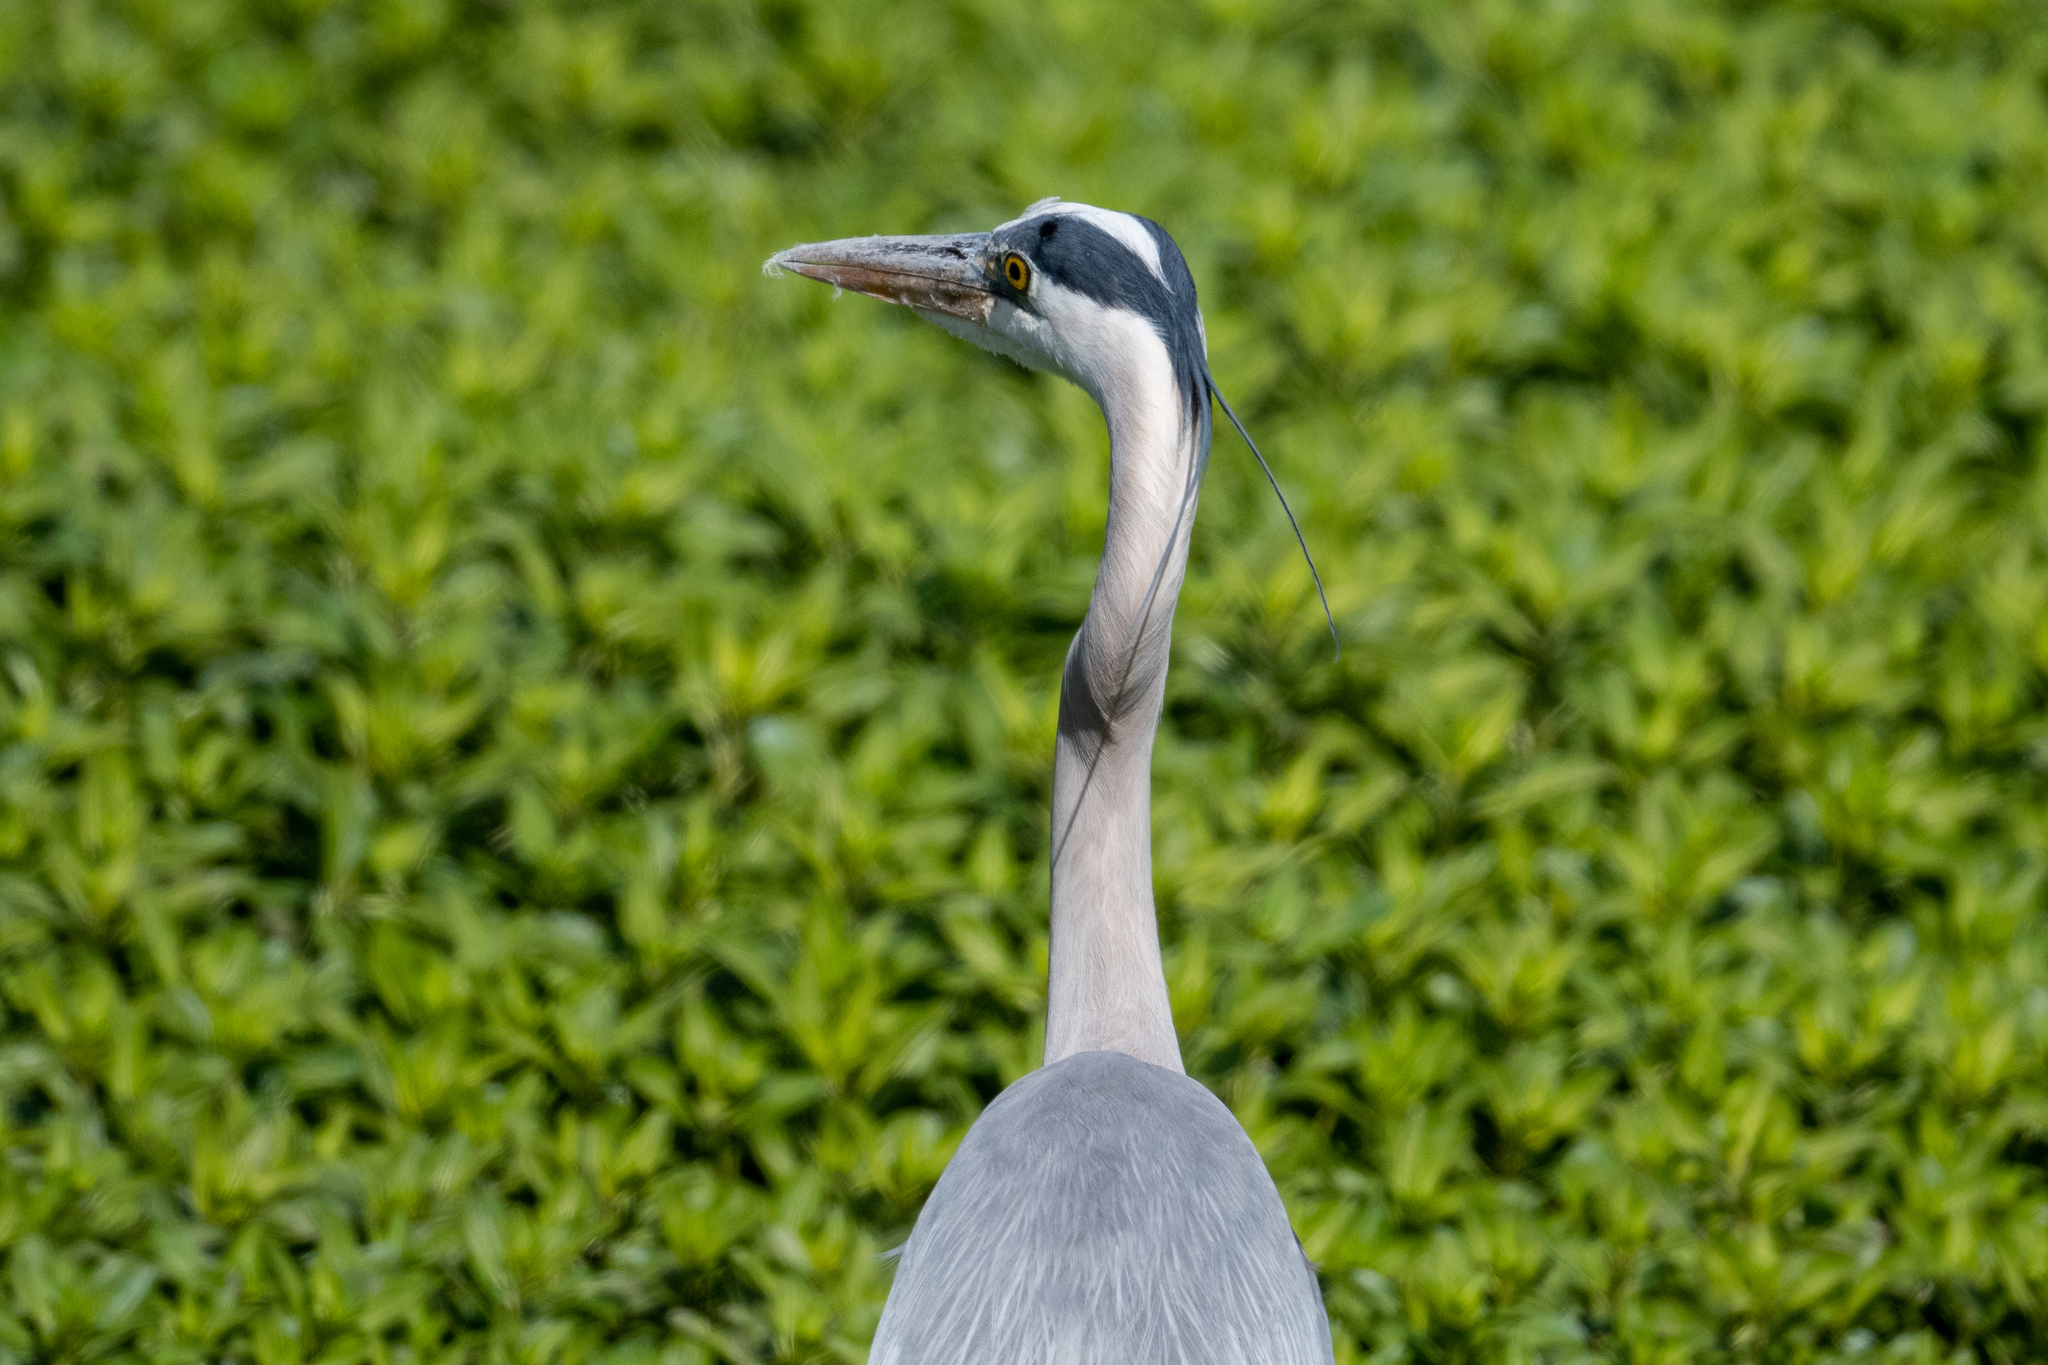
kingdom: Animalia
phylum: Chordata
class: Aves
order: Pelecaniformes
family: Ardeidae
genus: Ardea
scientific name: Ardea herodias
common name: Great blue heron
